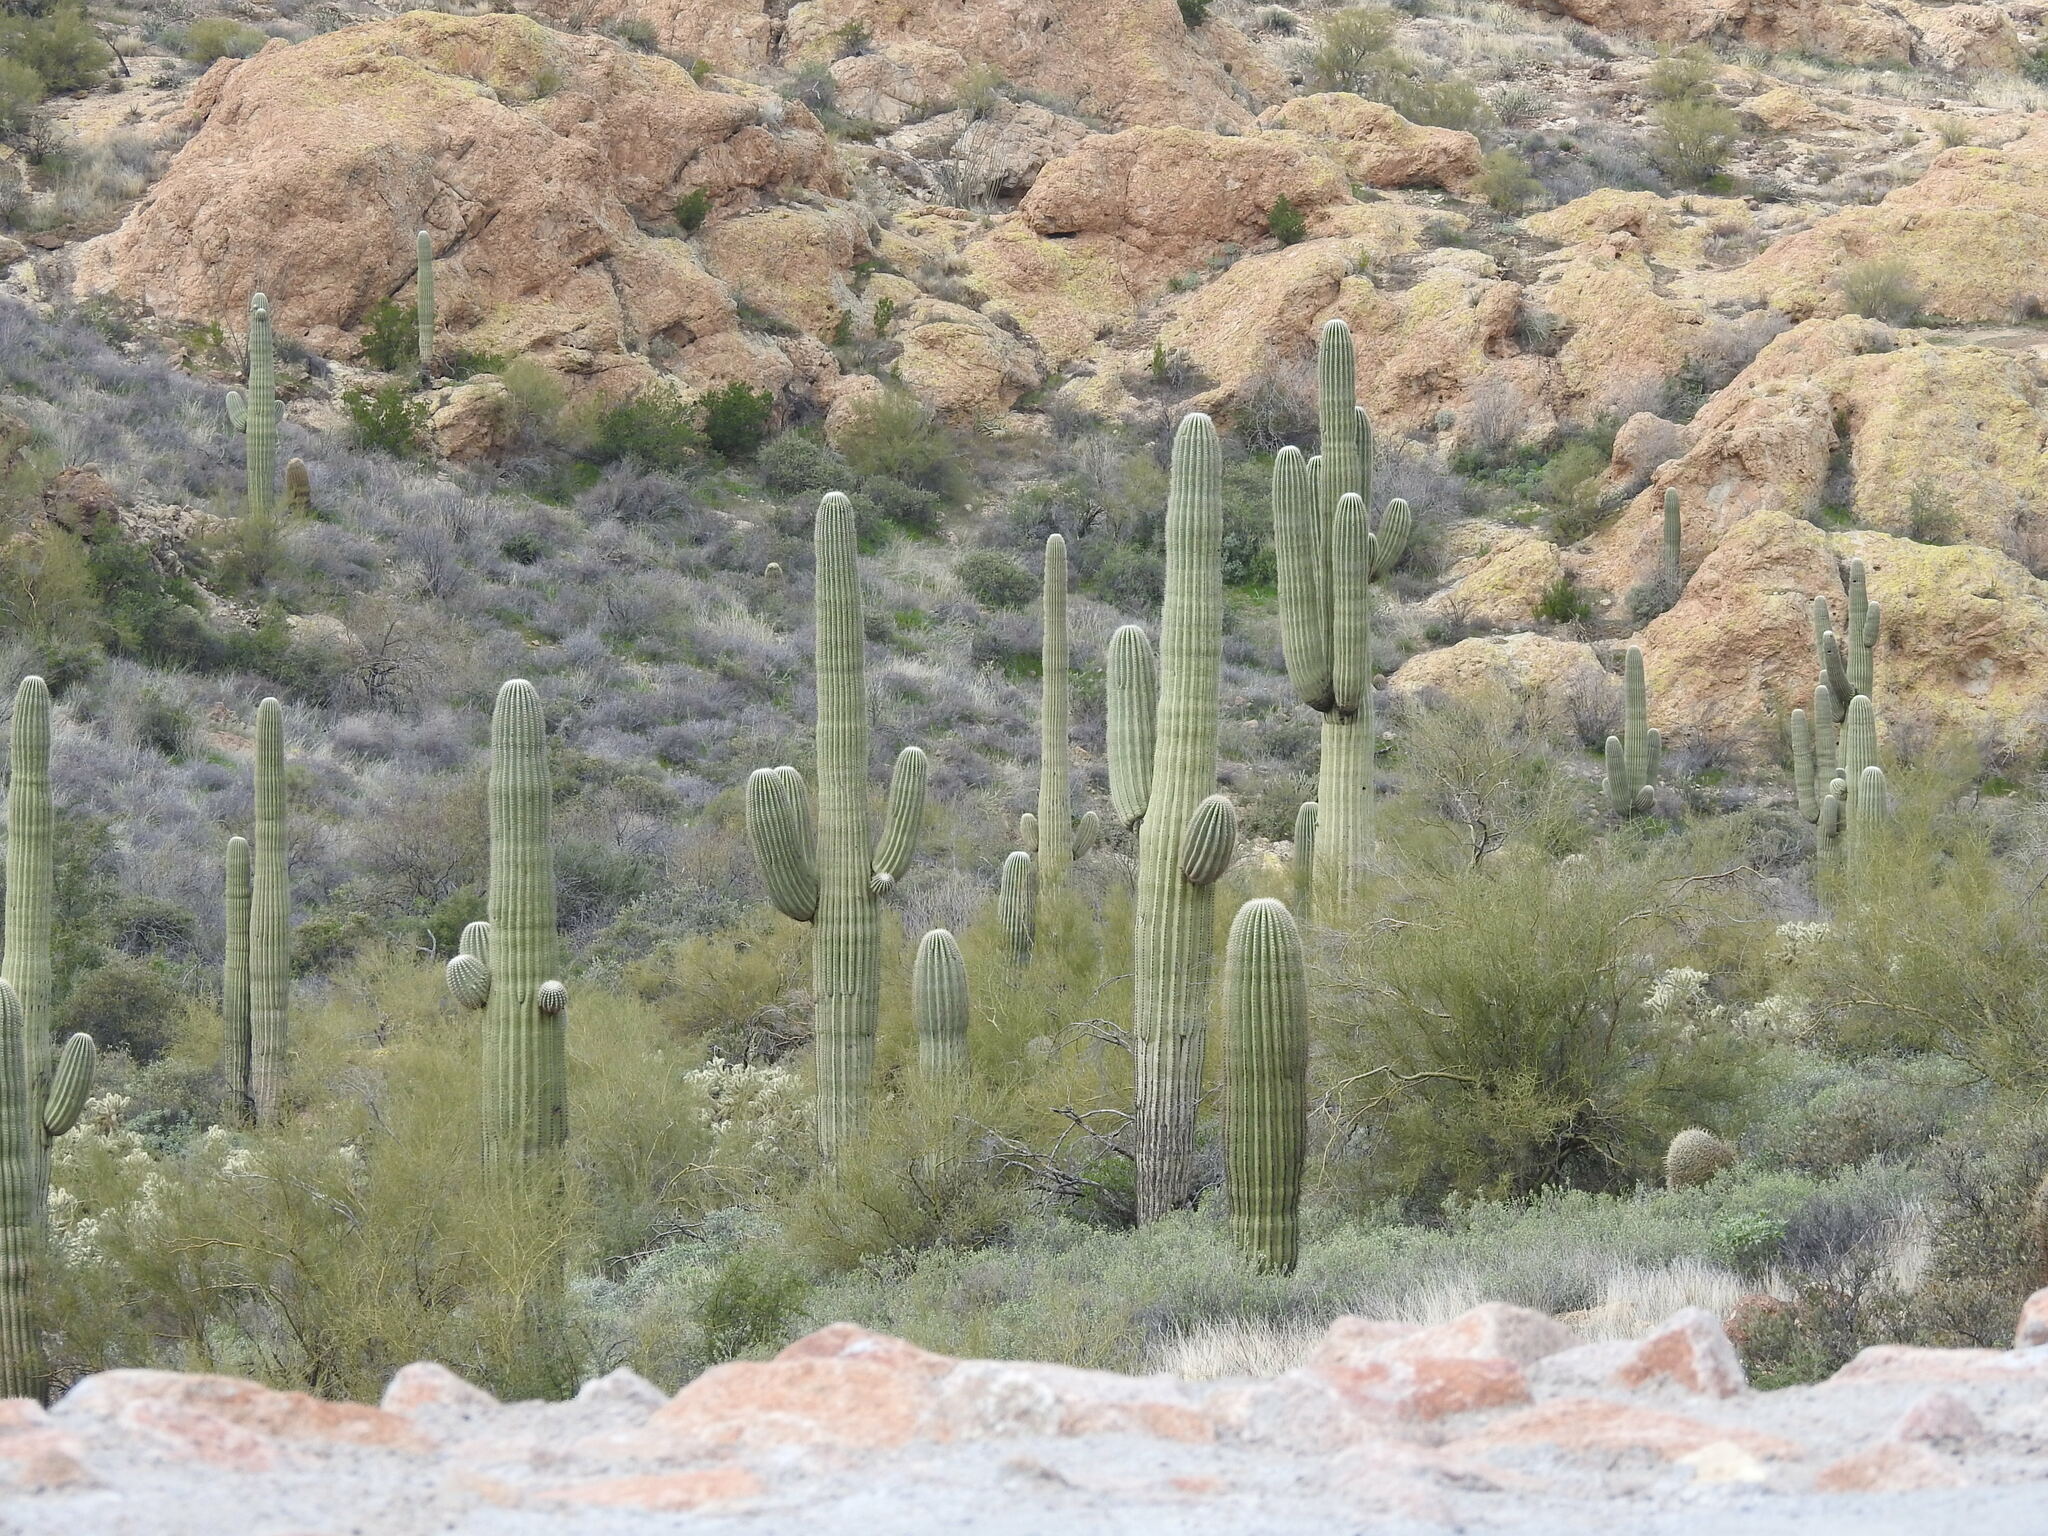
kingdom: Plantae
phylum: Tracheophyta
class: Magnoliopsida
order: Caryophyllales
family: Cactaceae
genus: Carnegiea
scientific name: Carnegiea gigantea
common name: Saguaro
